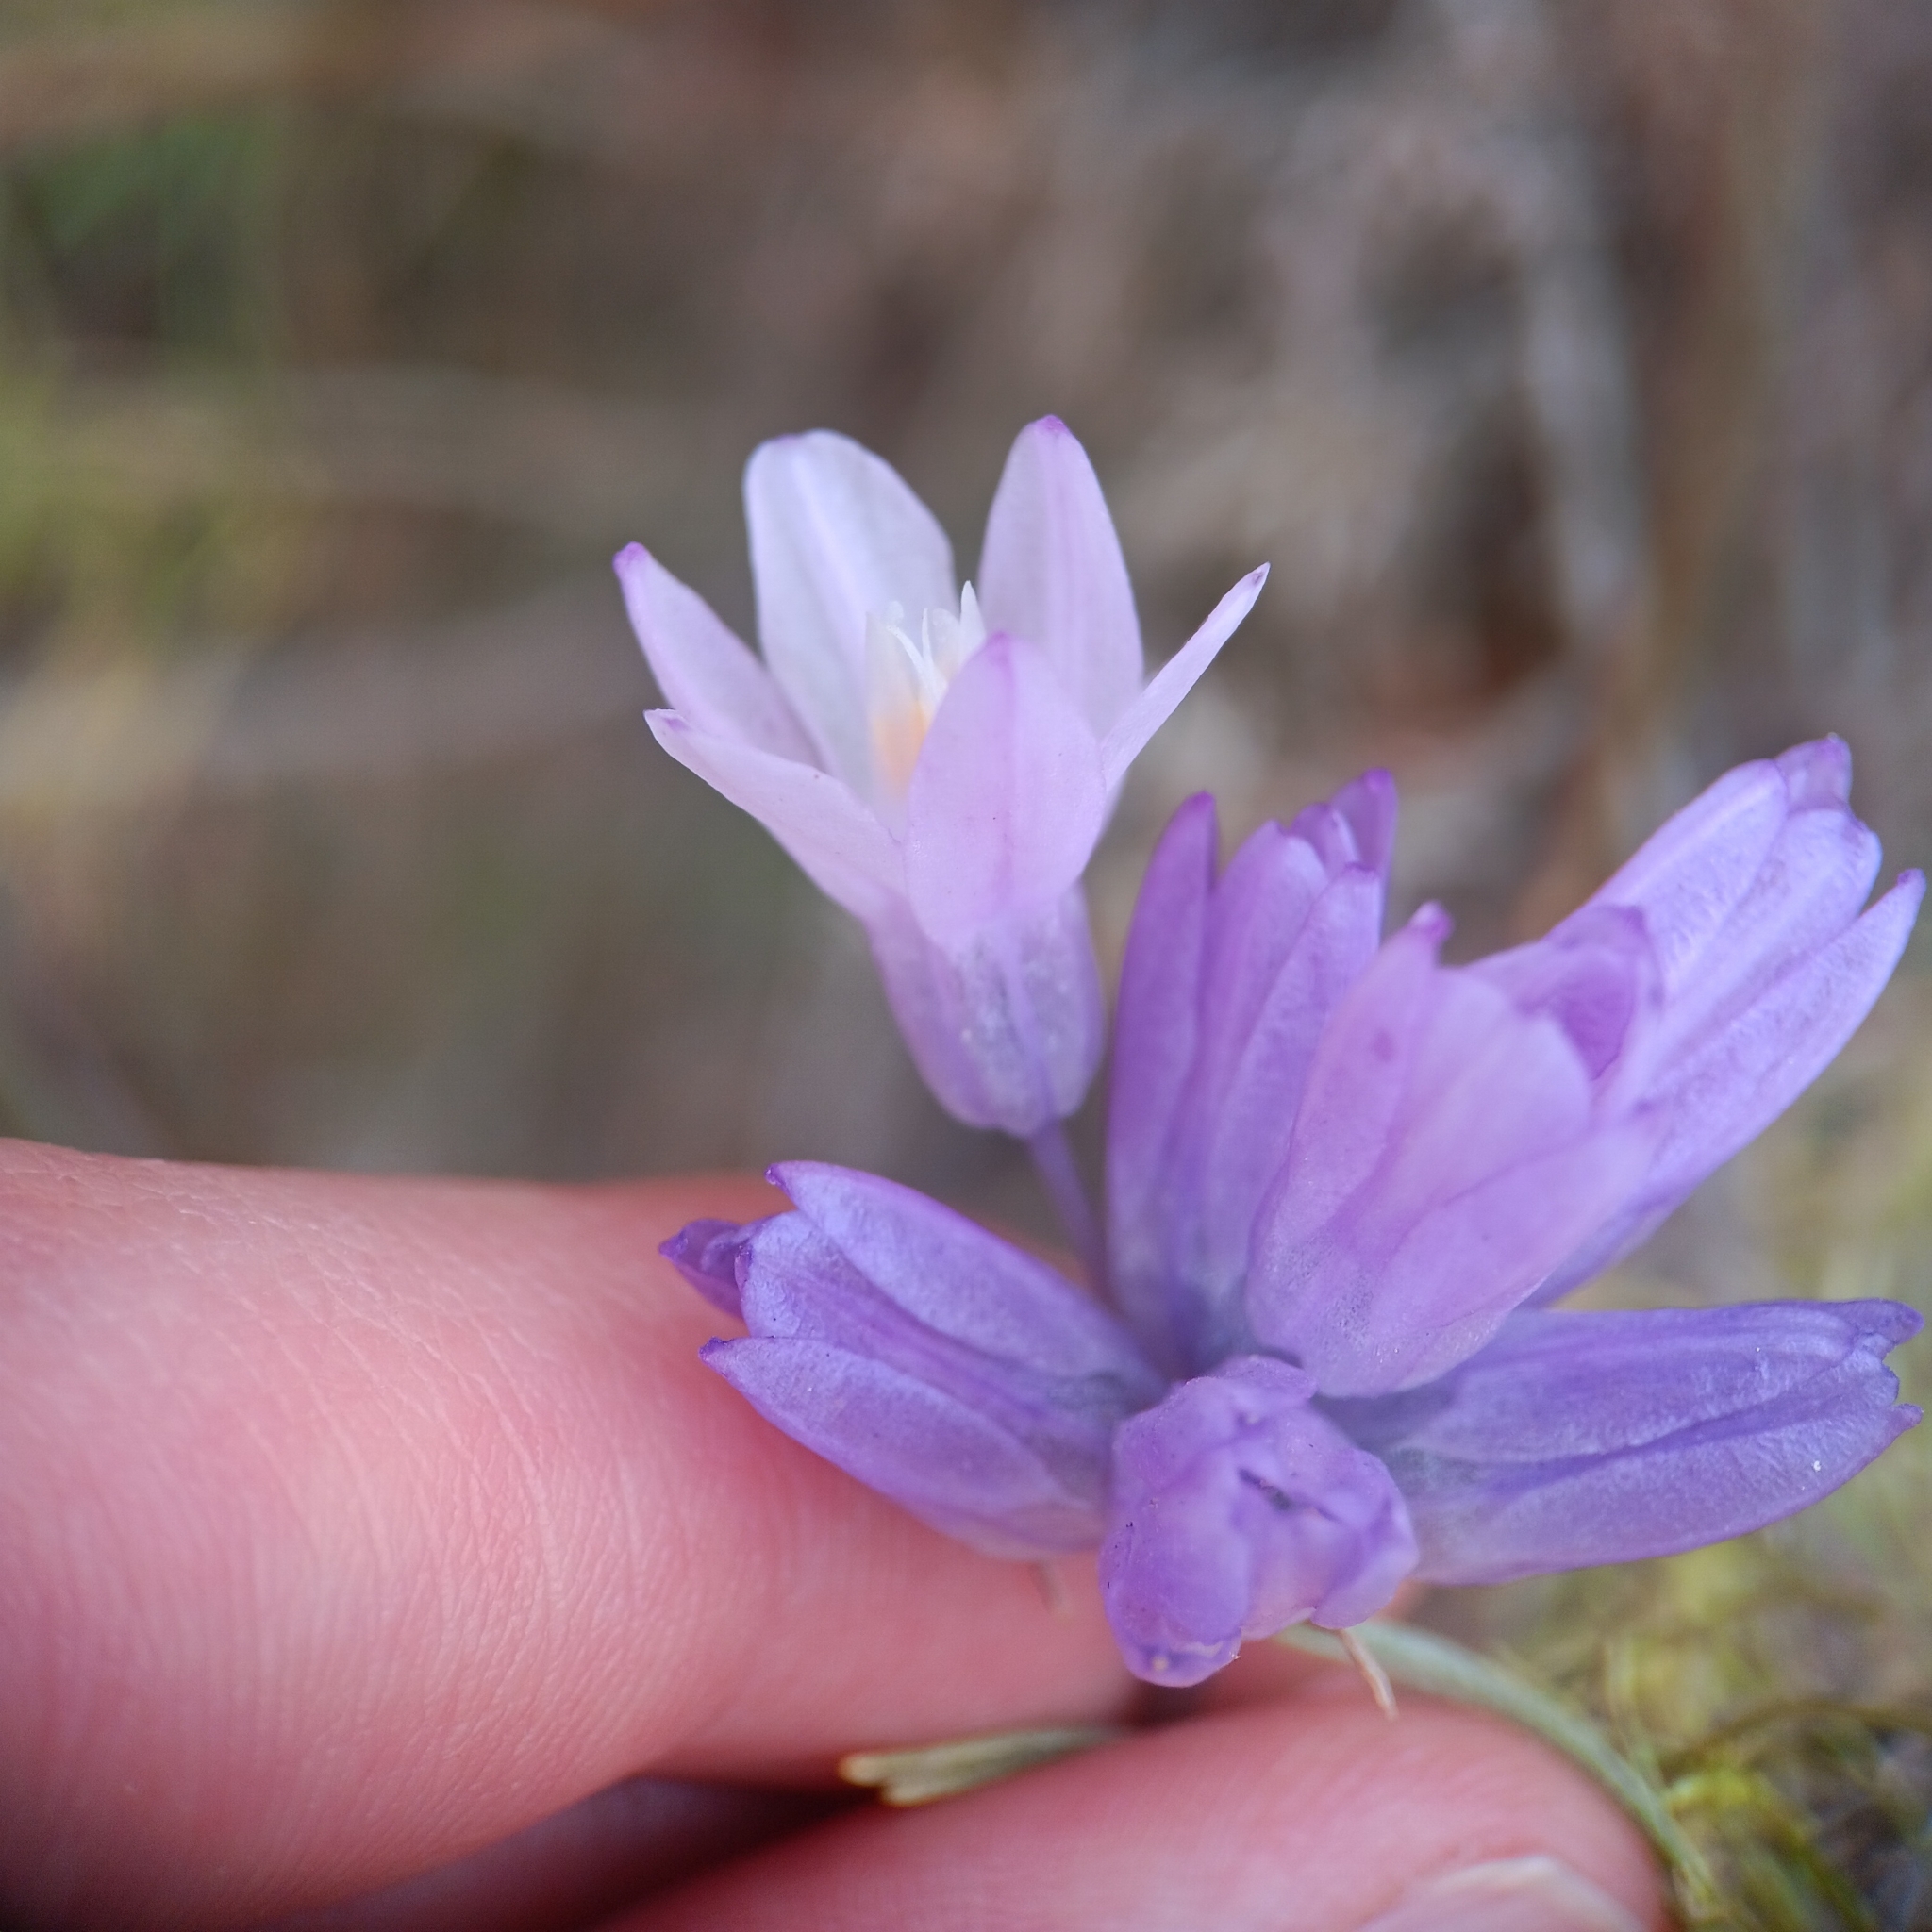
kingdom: Plantae
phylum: Tracheophyta
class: Liliopsida
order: Asparagales
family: Asparagaceae
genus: Dipterostemon
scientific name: Dipterostemon capitatus
